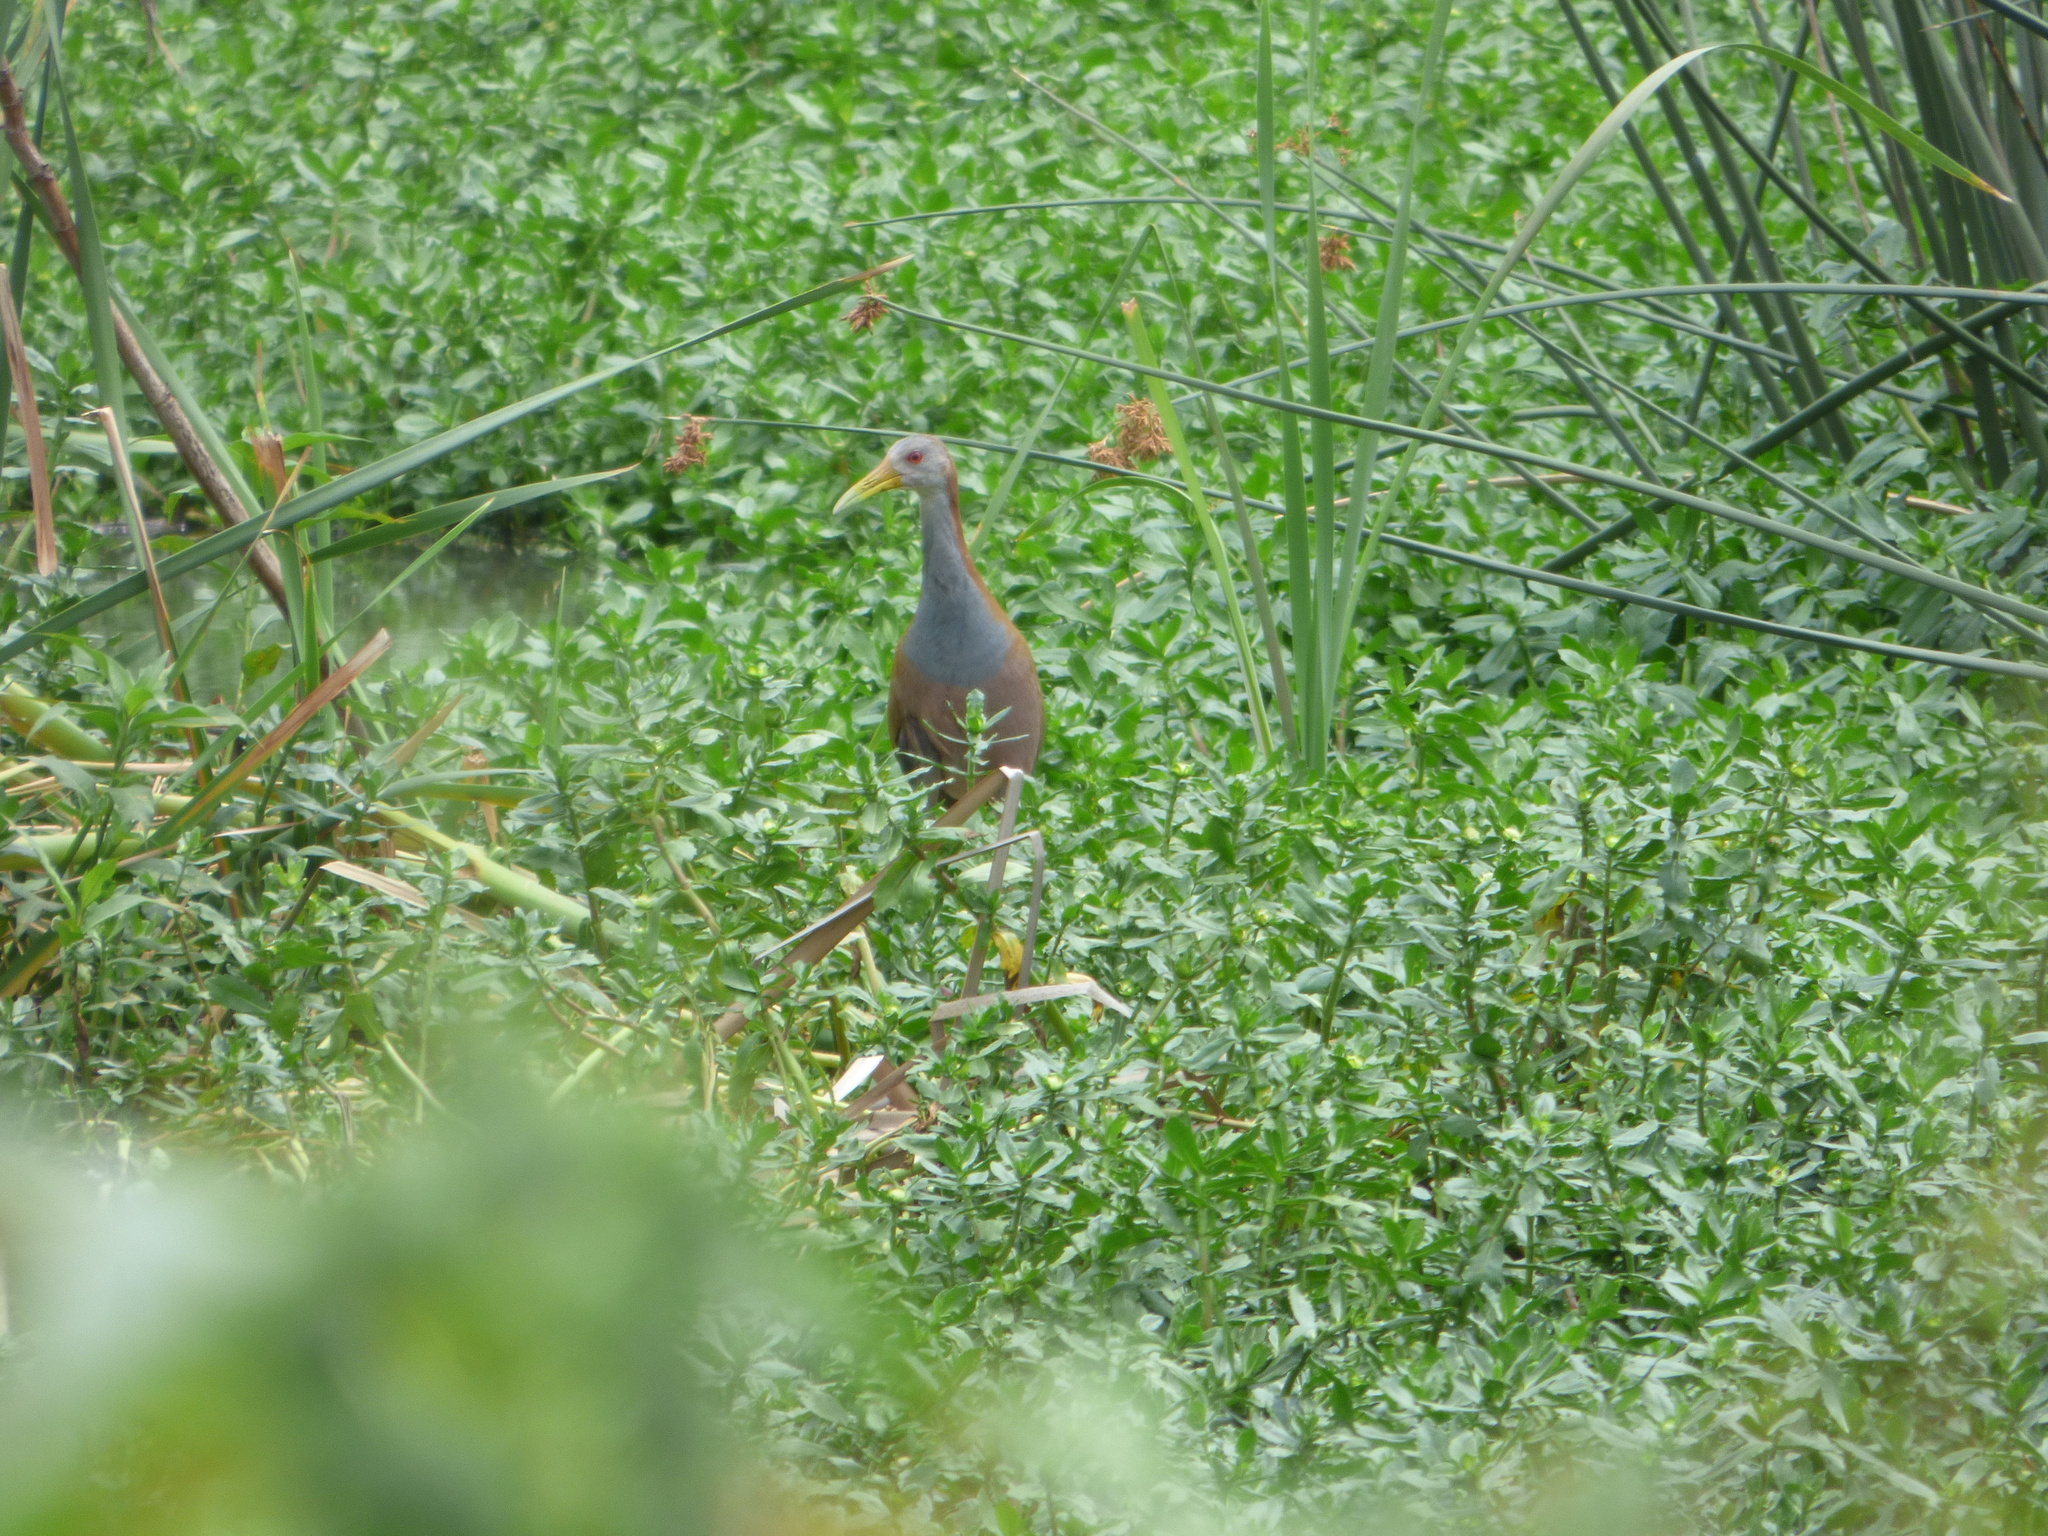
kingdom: Animalia
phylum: Chordata
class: Aves
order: Gruiformes
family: Rallidae
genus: Aramides
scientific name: Aramides ypecaha
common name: Giant wood rail
